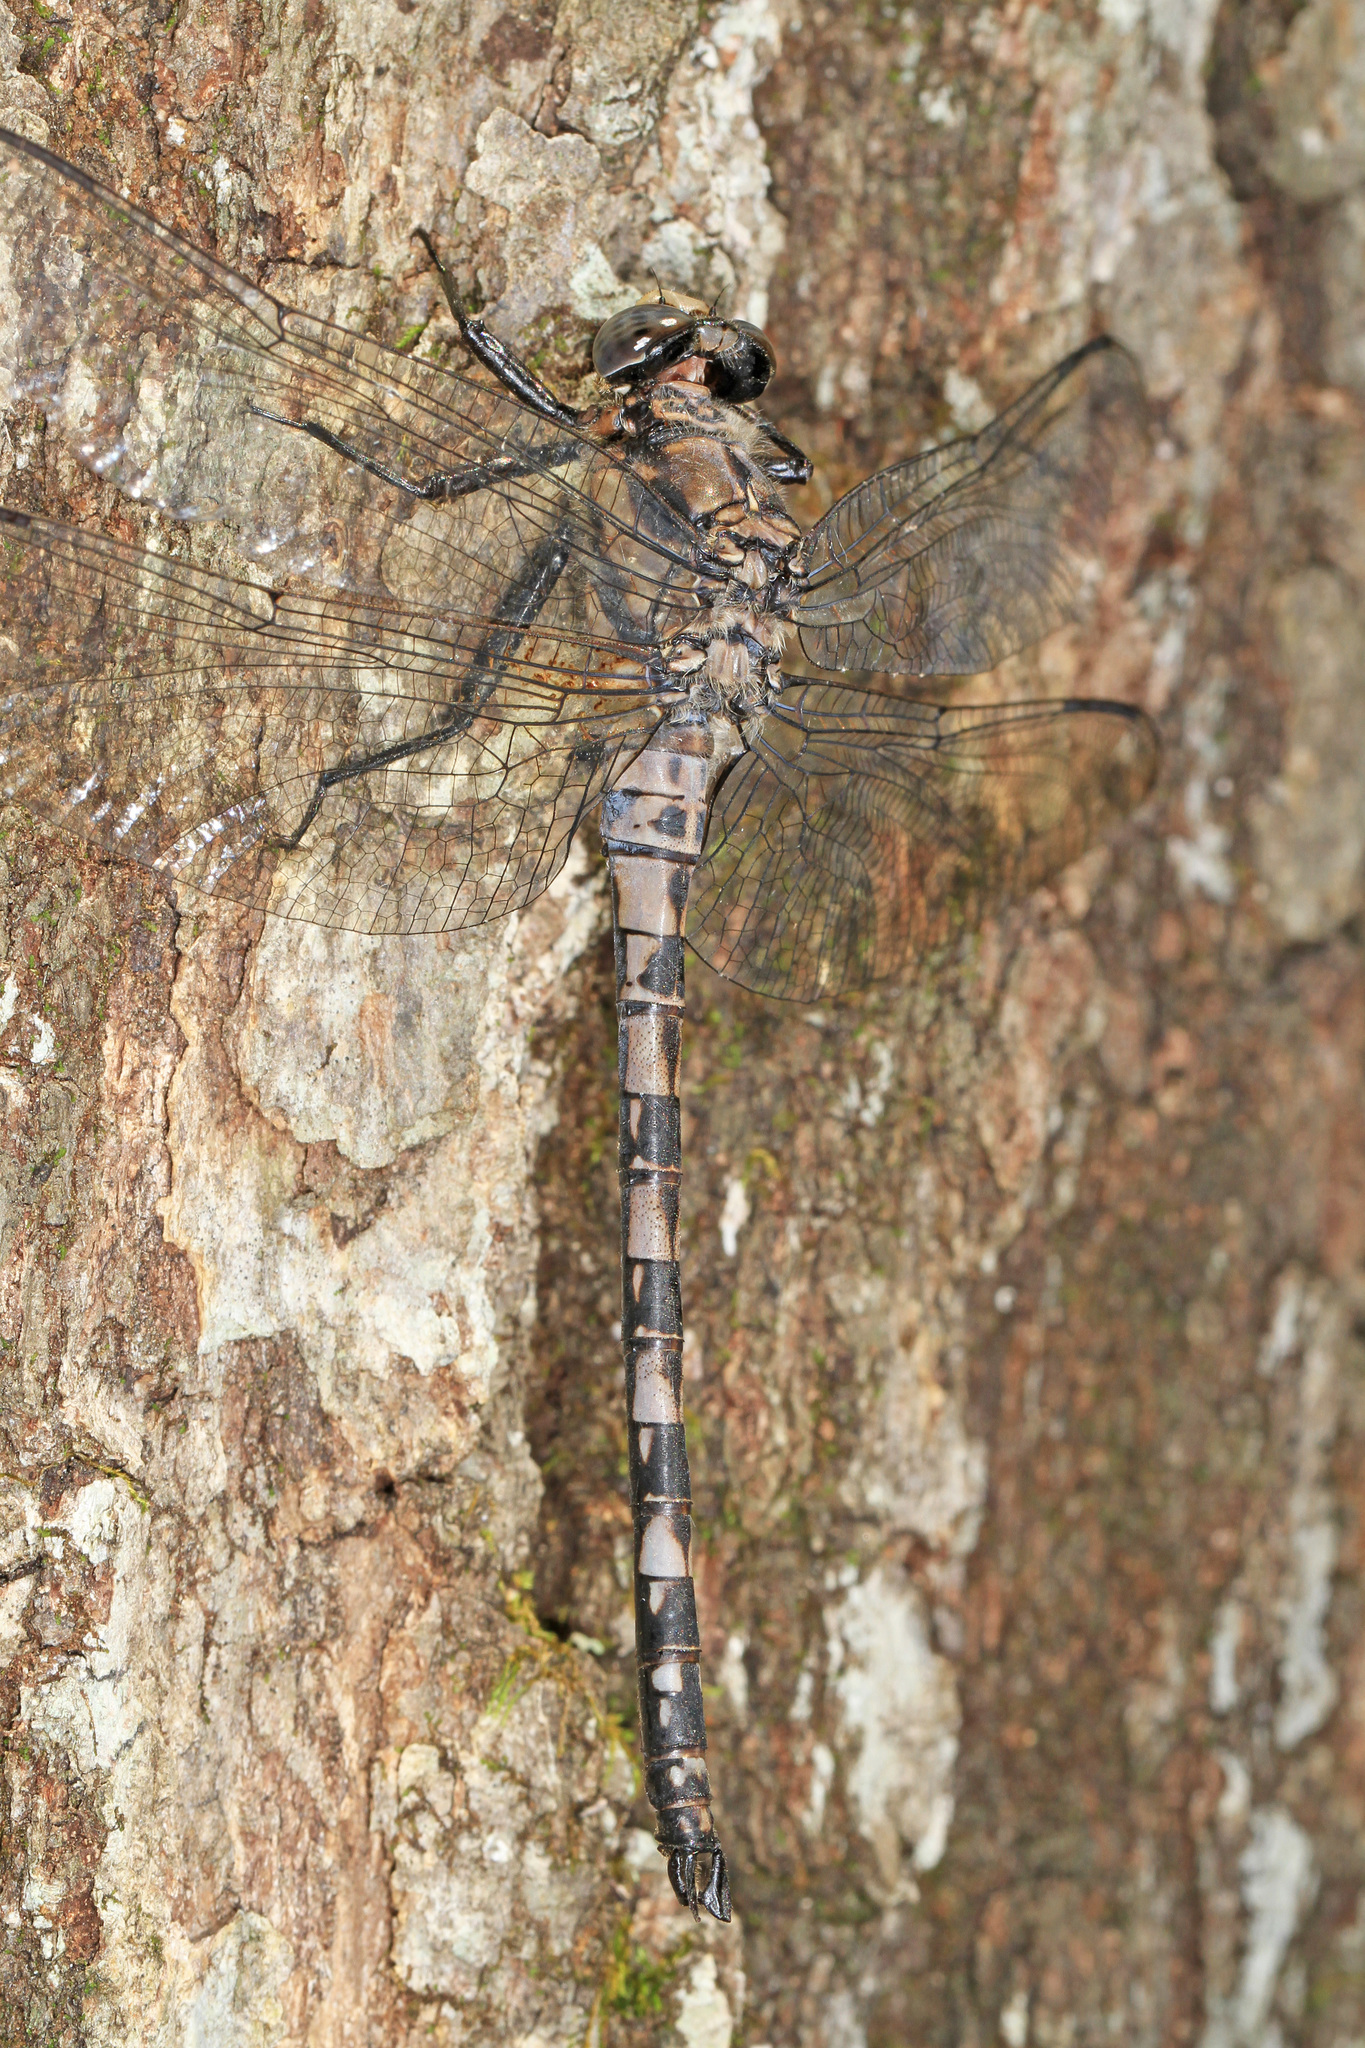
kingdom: Animalia
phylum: Arthropoda
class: Insecta
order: Odonata
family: Petaluridae
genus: Tachopteryx
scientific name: Tachopteryx thoreyi
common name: Gray petaltail
